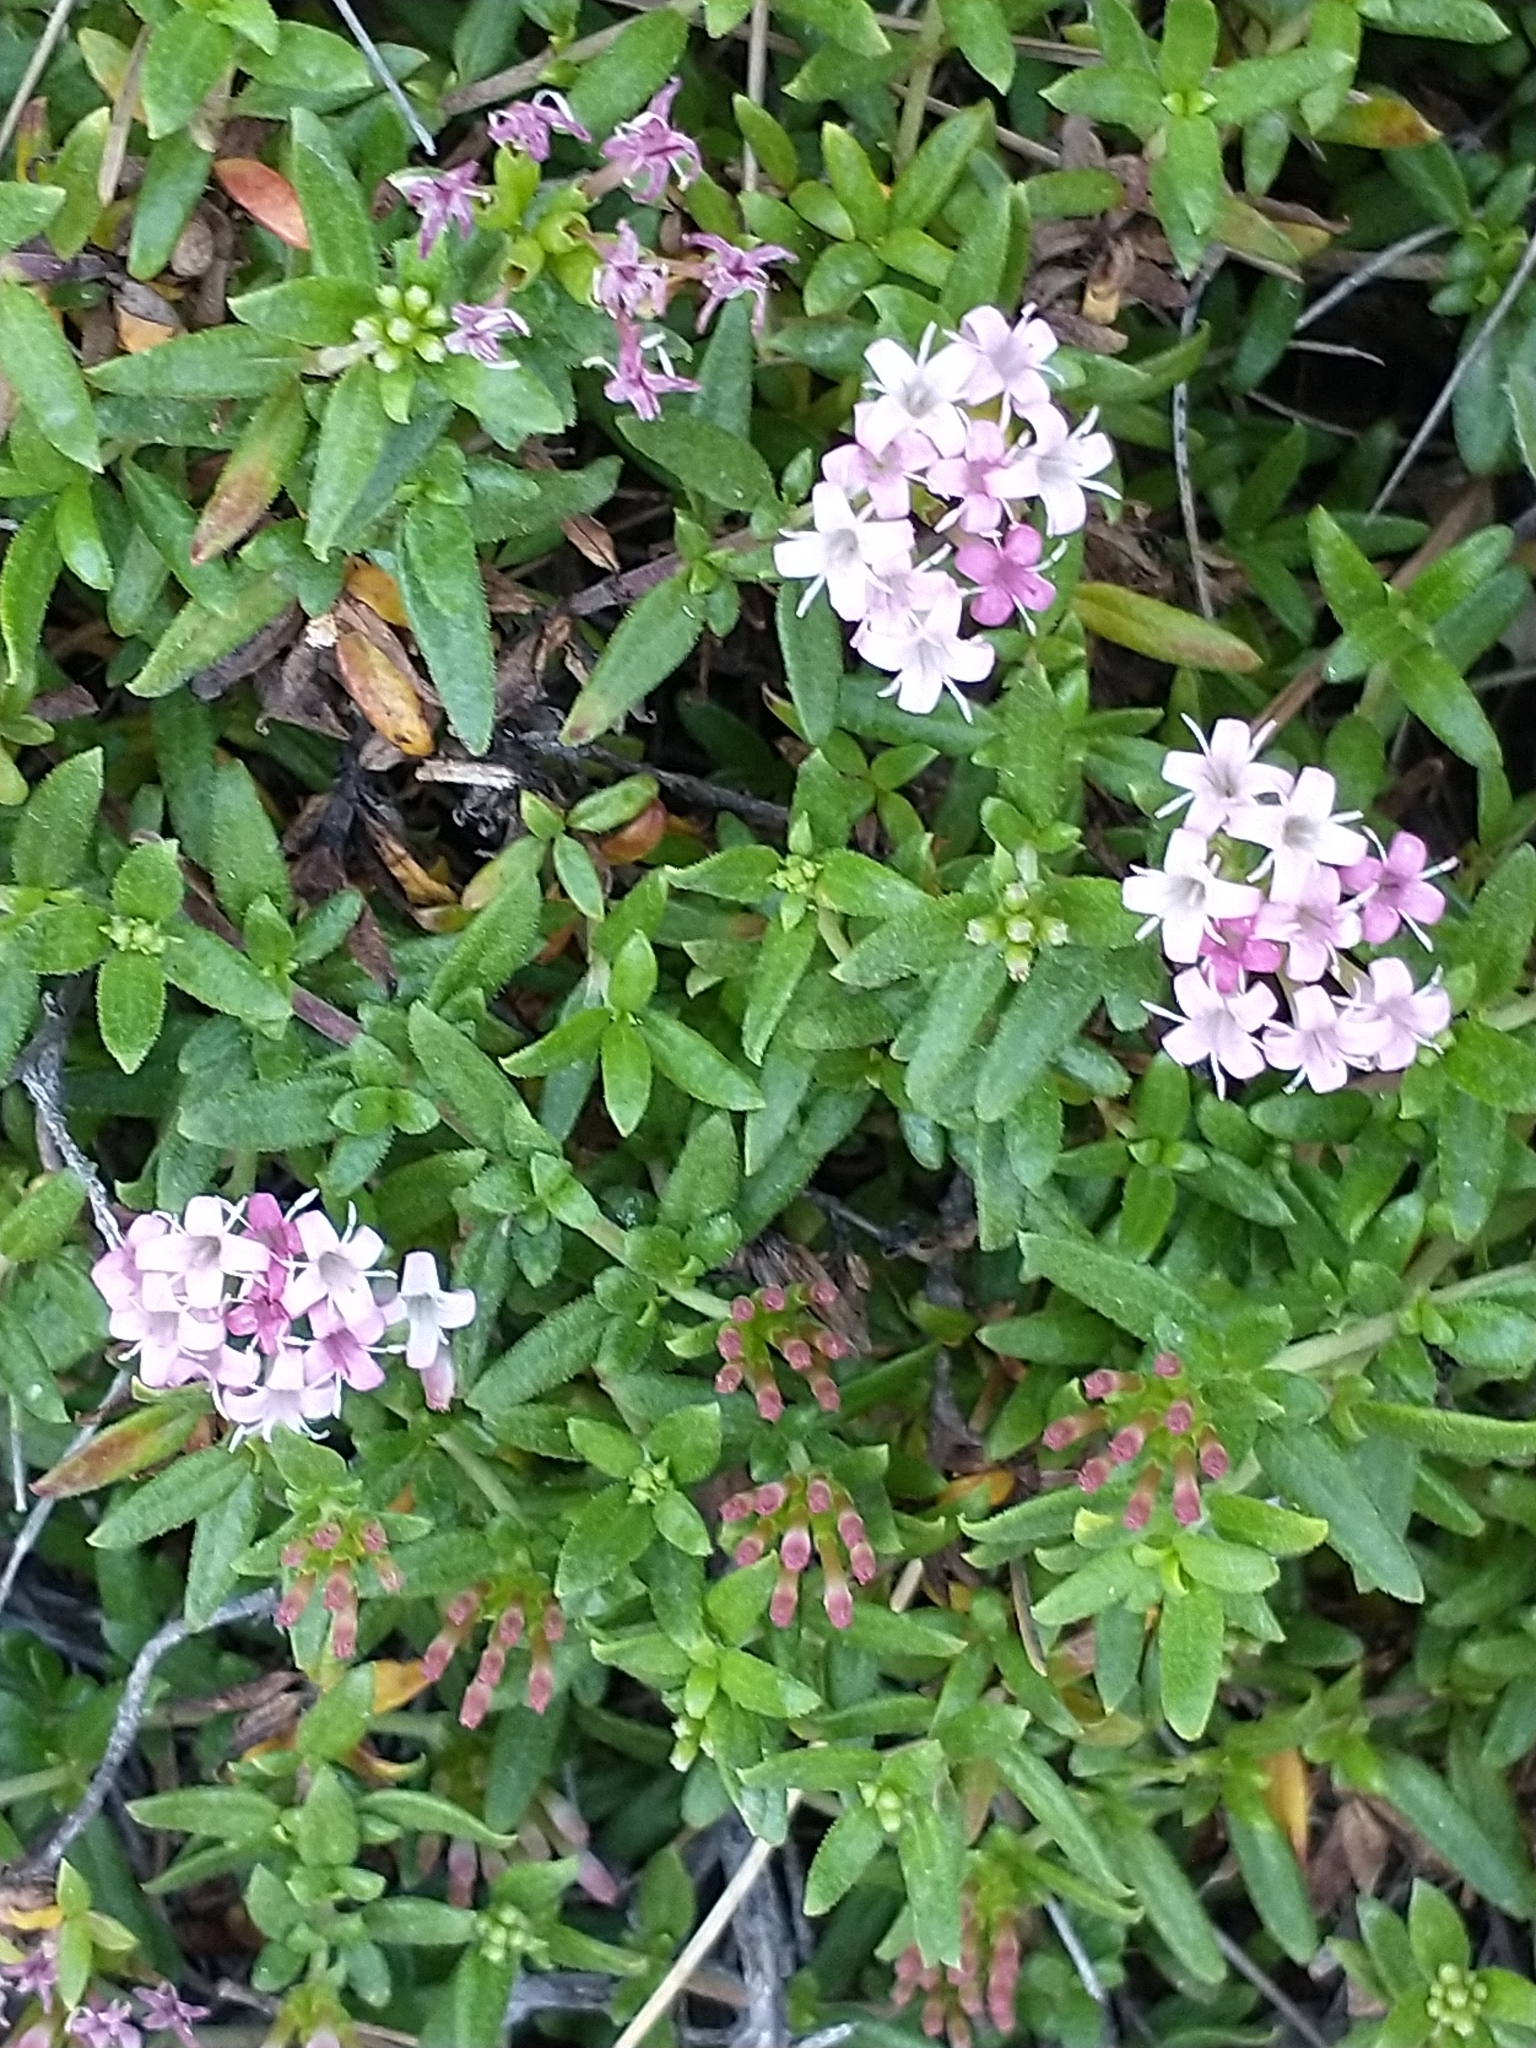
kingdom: Plantae
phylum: Tracheophyta
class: Magnoliopsida
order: Gentianales
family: Rubiaceae
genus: Plocama
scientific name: Plocama calabrica
